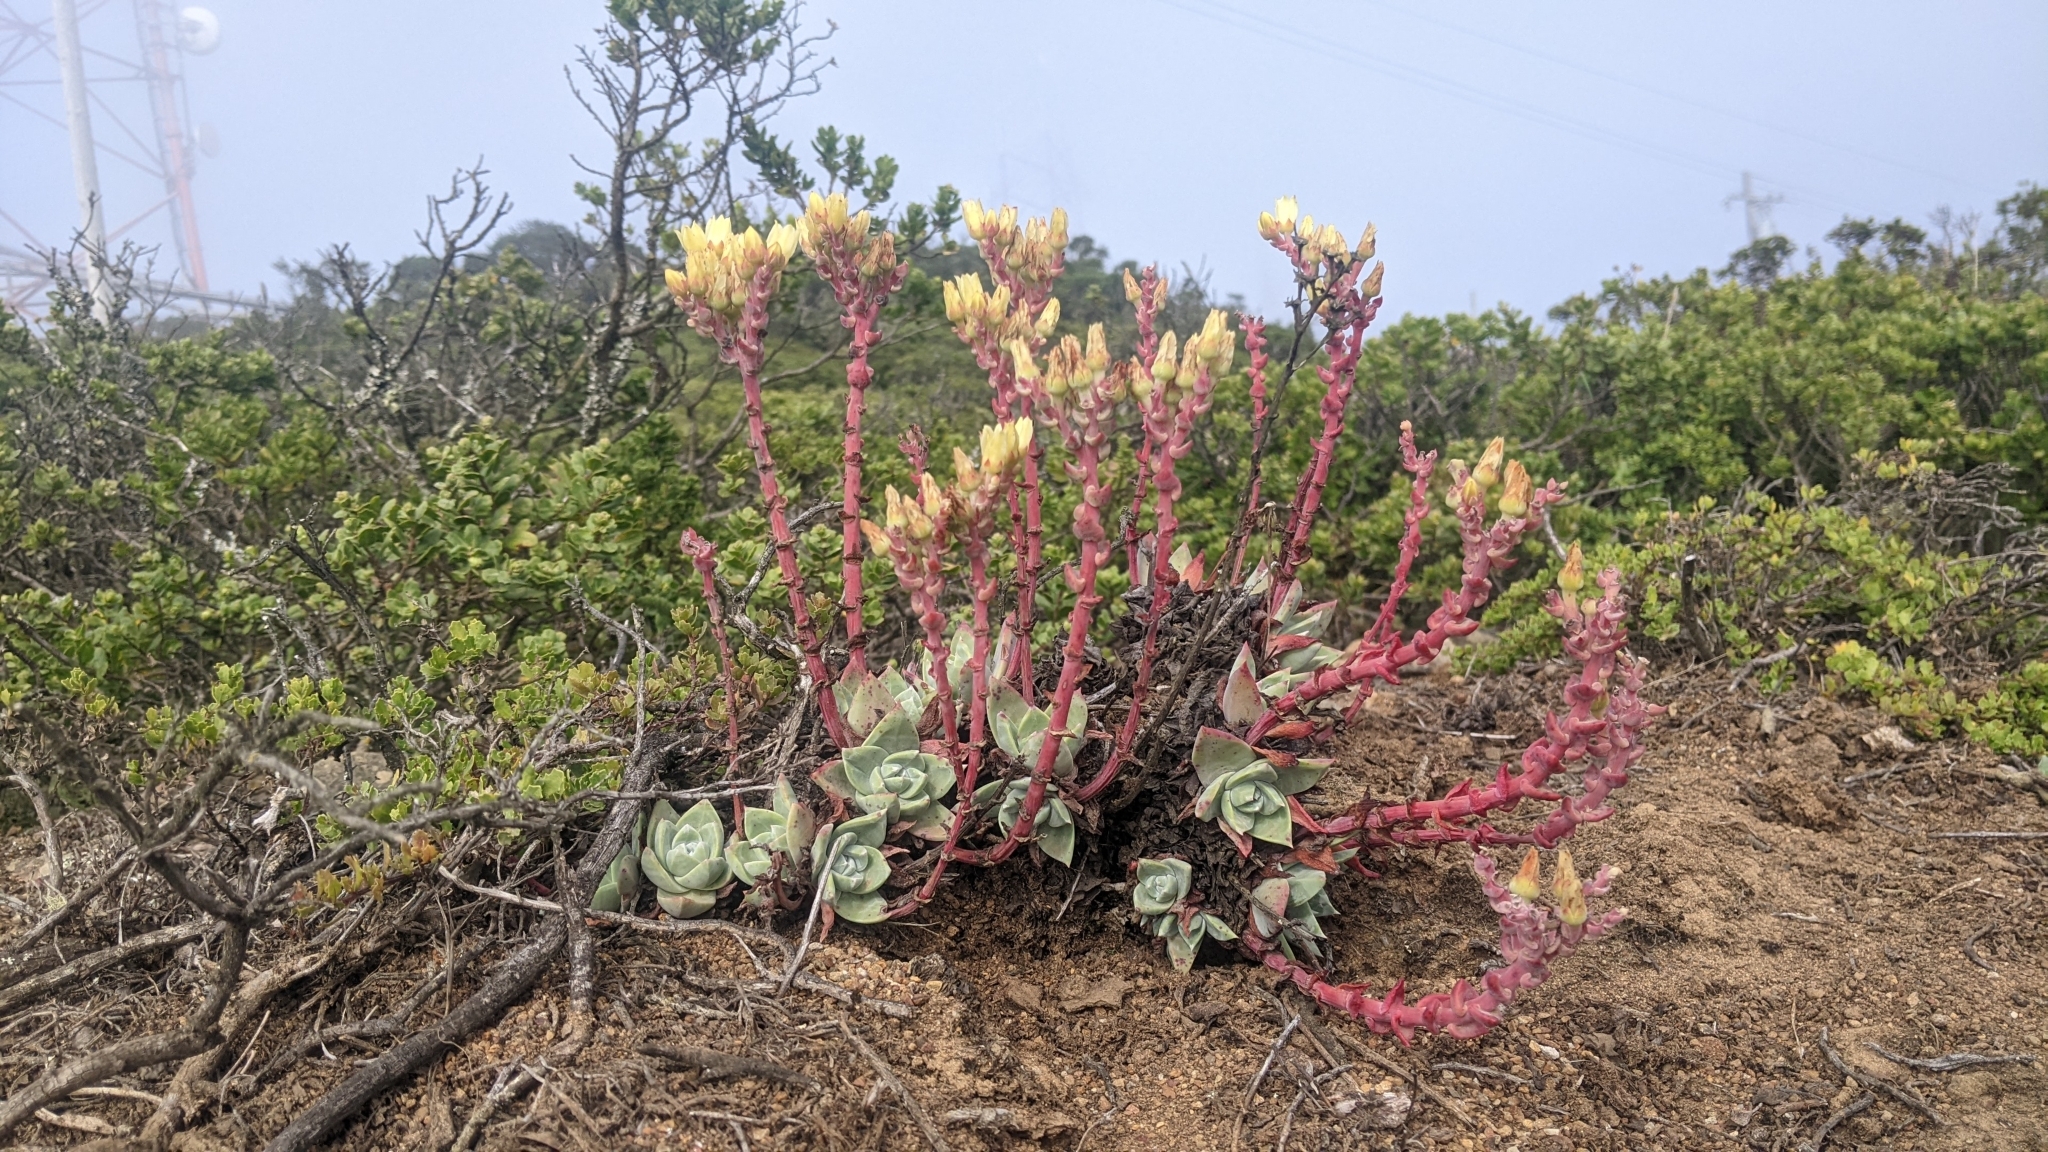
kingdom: Plantae
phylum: Tracheophyta
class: Magnoliopsida
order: Saxifragales
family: Crassulaceae
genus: Dudleya
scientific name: Dudleya farinosa
